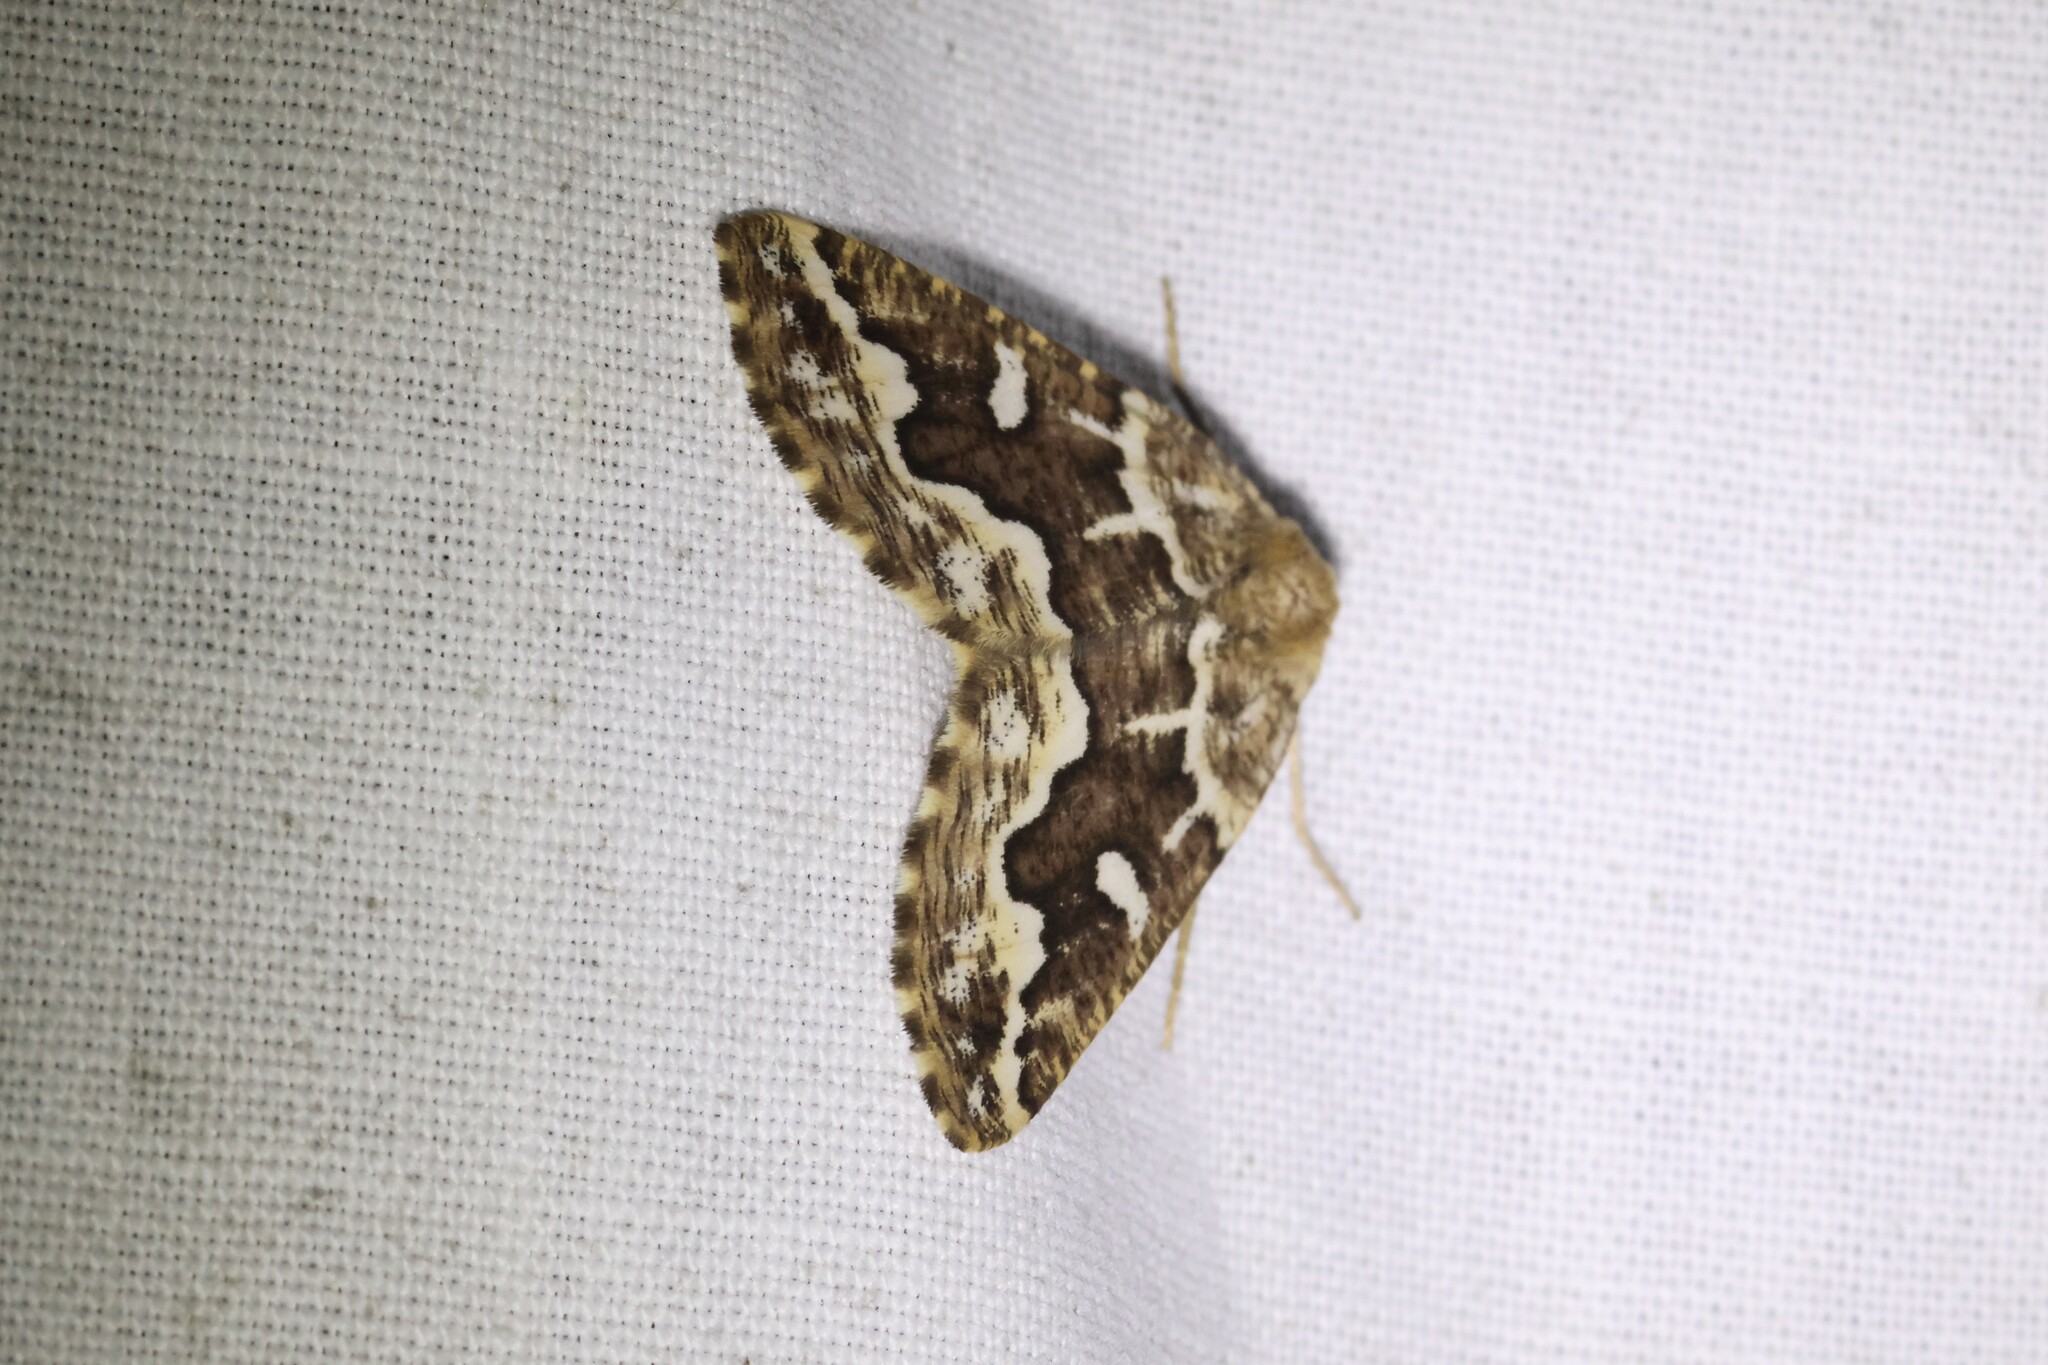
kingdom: Animalia
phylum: Arthropoda
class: Insecta
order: Lepidoptera
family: Geometridae
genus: Caripeta
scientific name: Caripeta divisata
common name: Gray spruce looper
